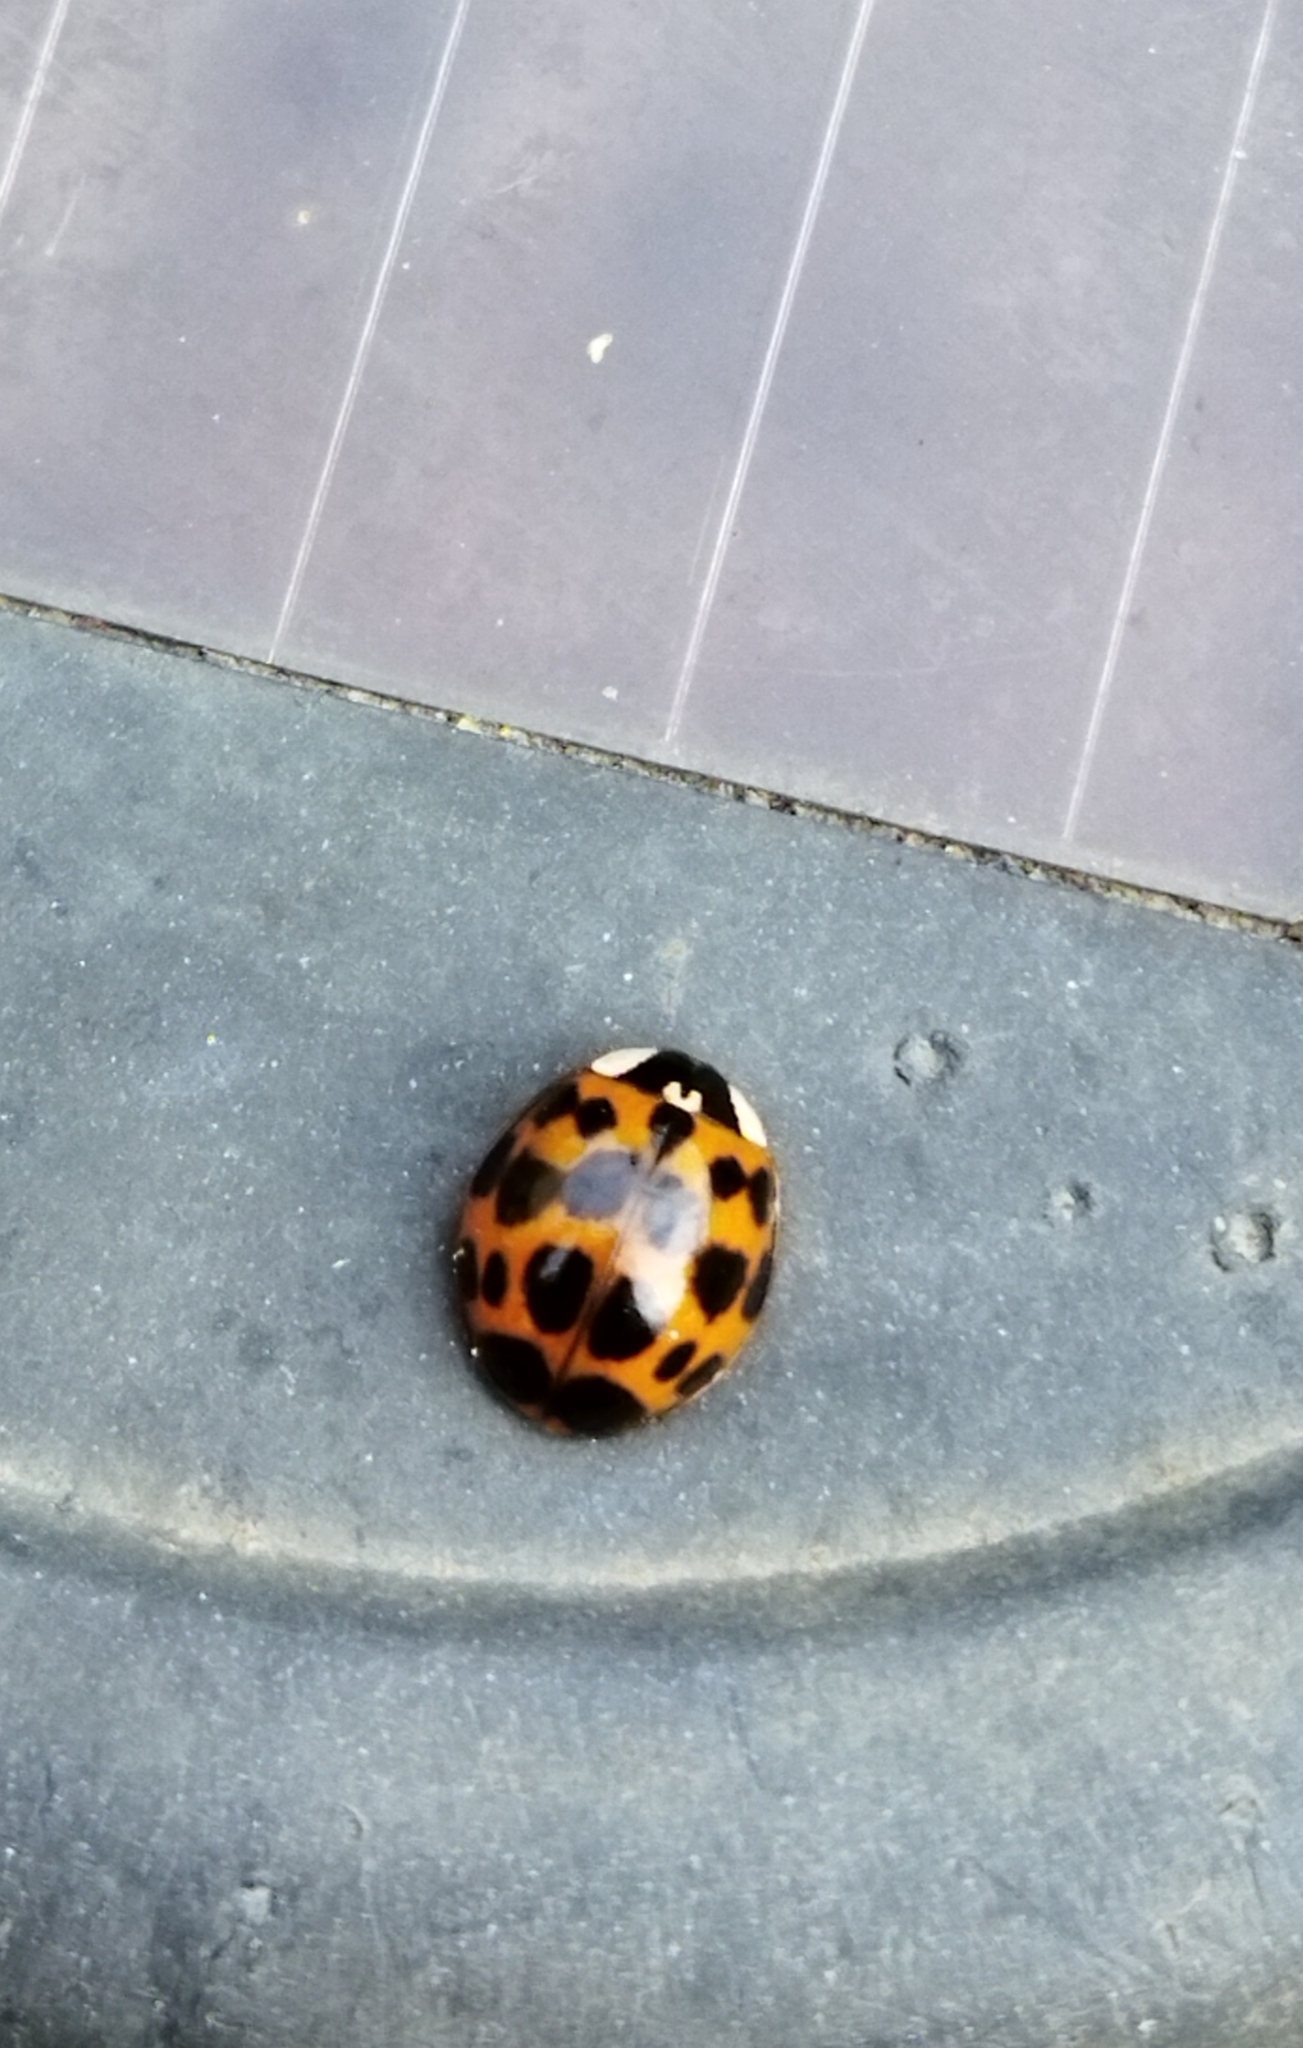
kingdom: Animalia
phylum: Arthropoda
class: Insecta
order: Coleoptera
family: Coccinellidae
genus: Harmonia
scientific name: Harmonia axyridis
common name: Harlequin ladybird
